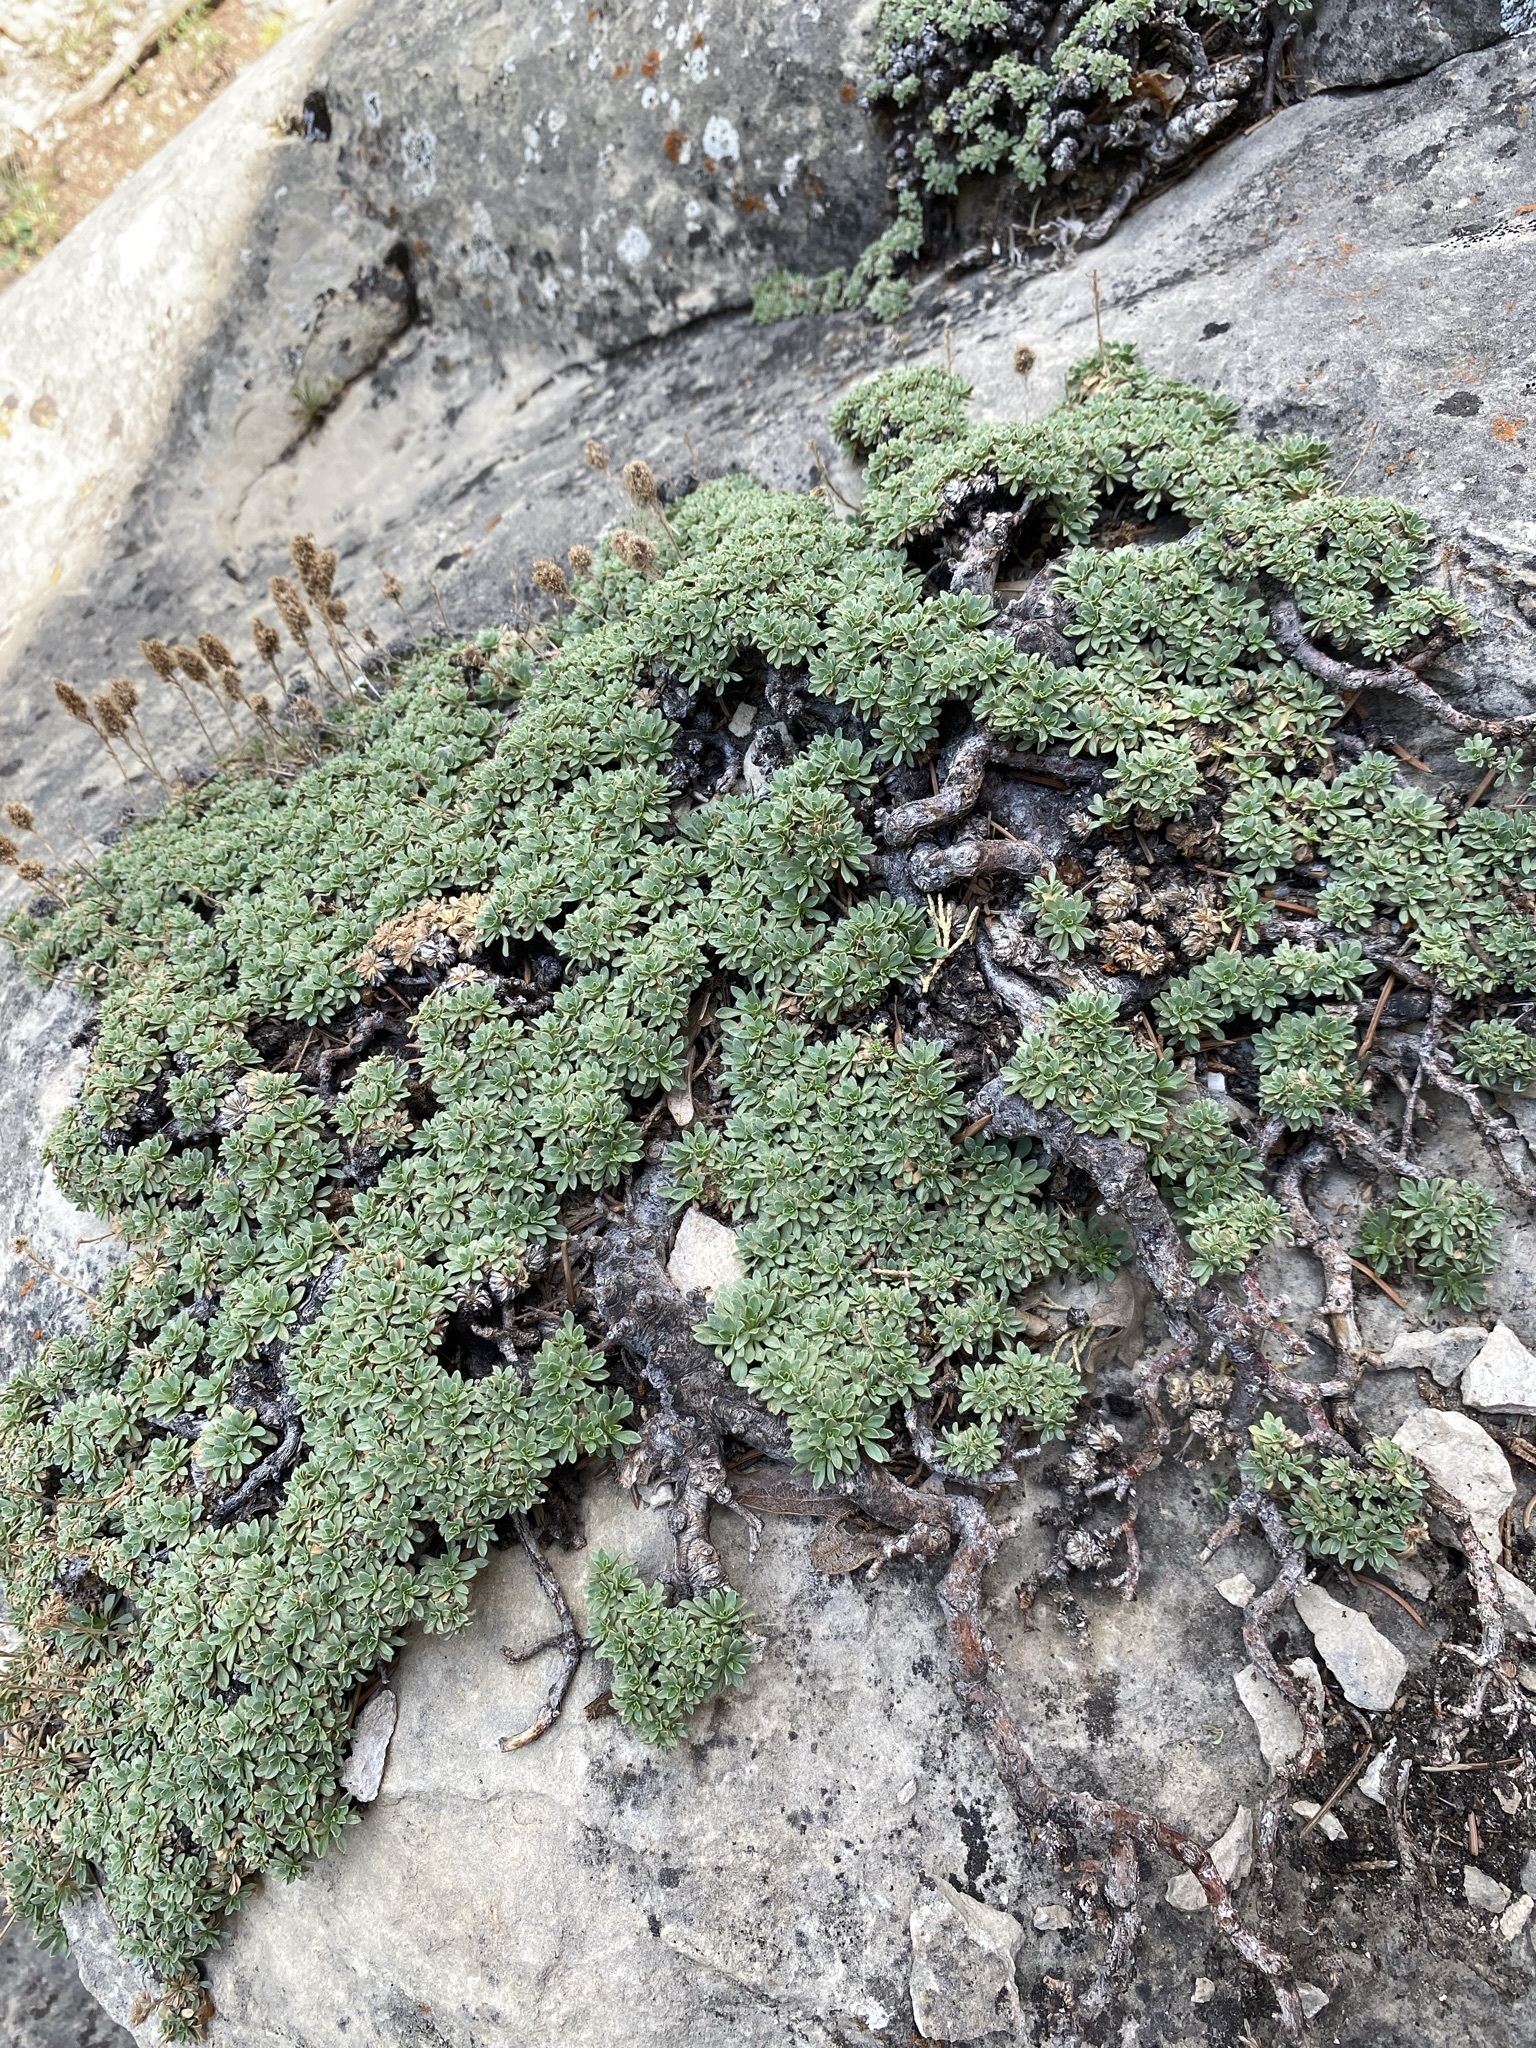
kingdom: Plantae
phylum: Tracheophyta
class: Magnoliopsida
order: Rosales
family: Rosaceae
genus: Petrophytum
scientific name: Petrophytum caespitosum
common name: Mat rockspirea
